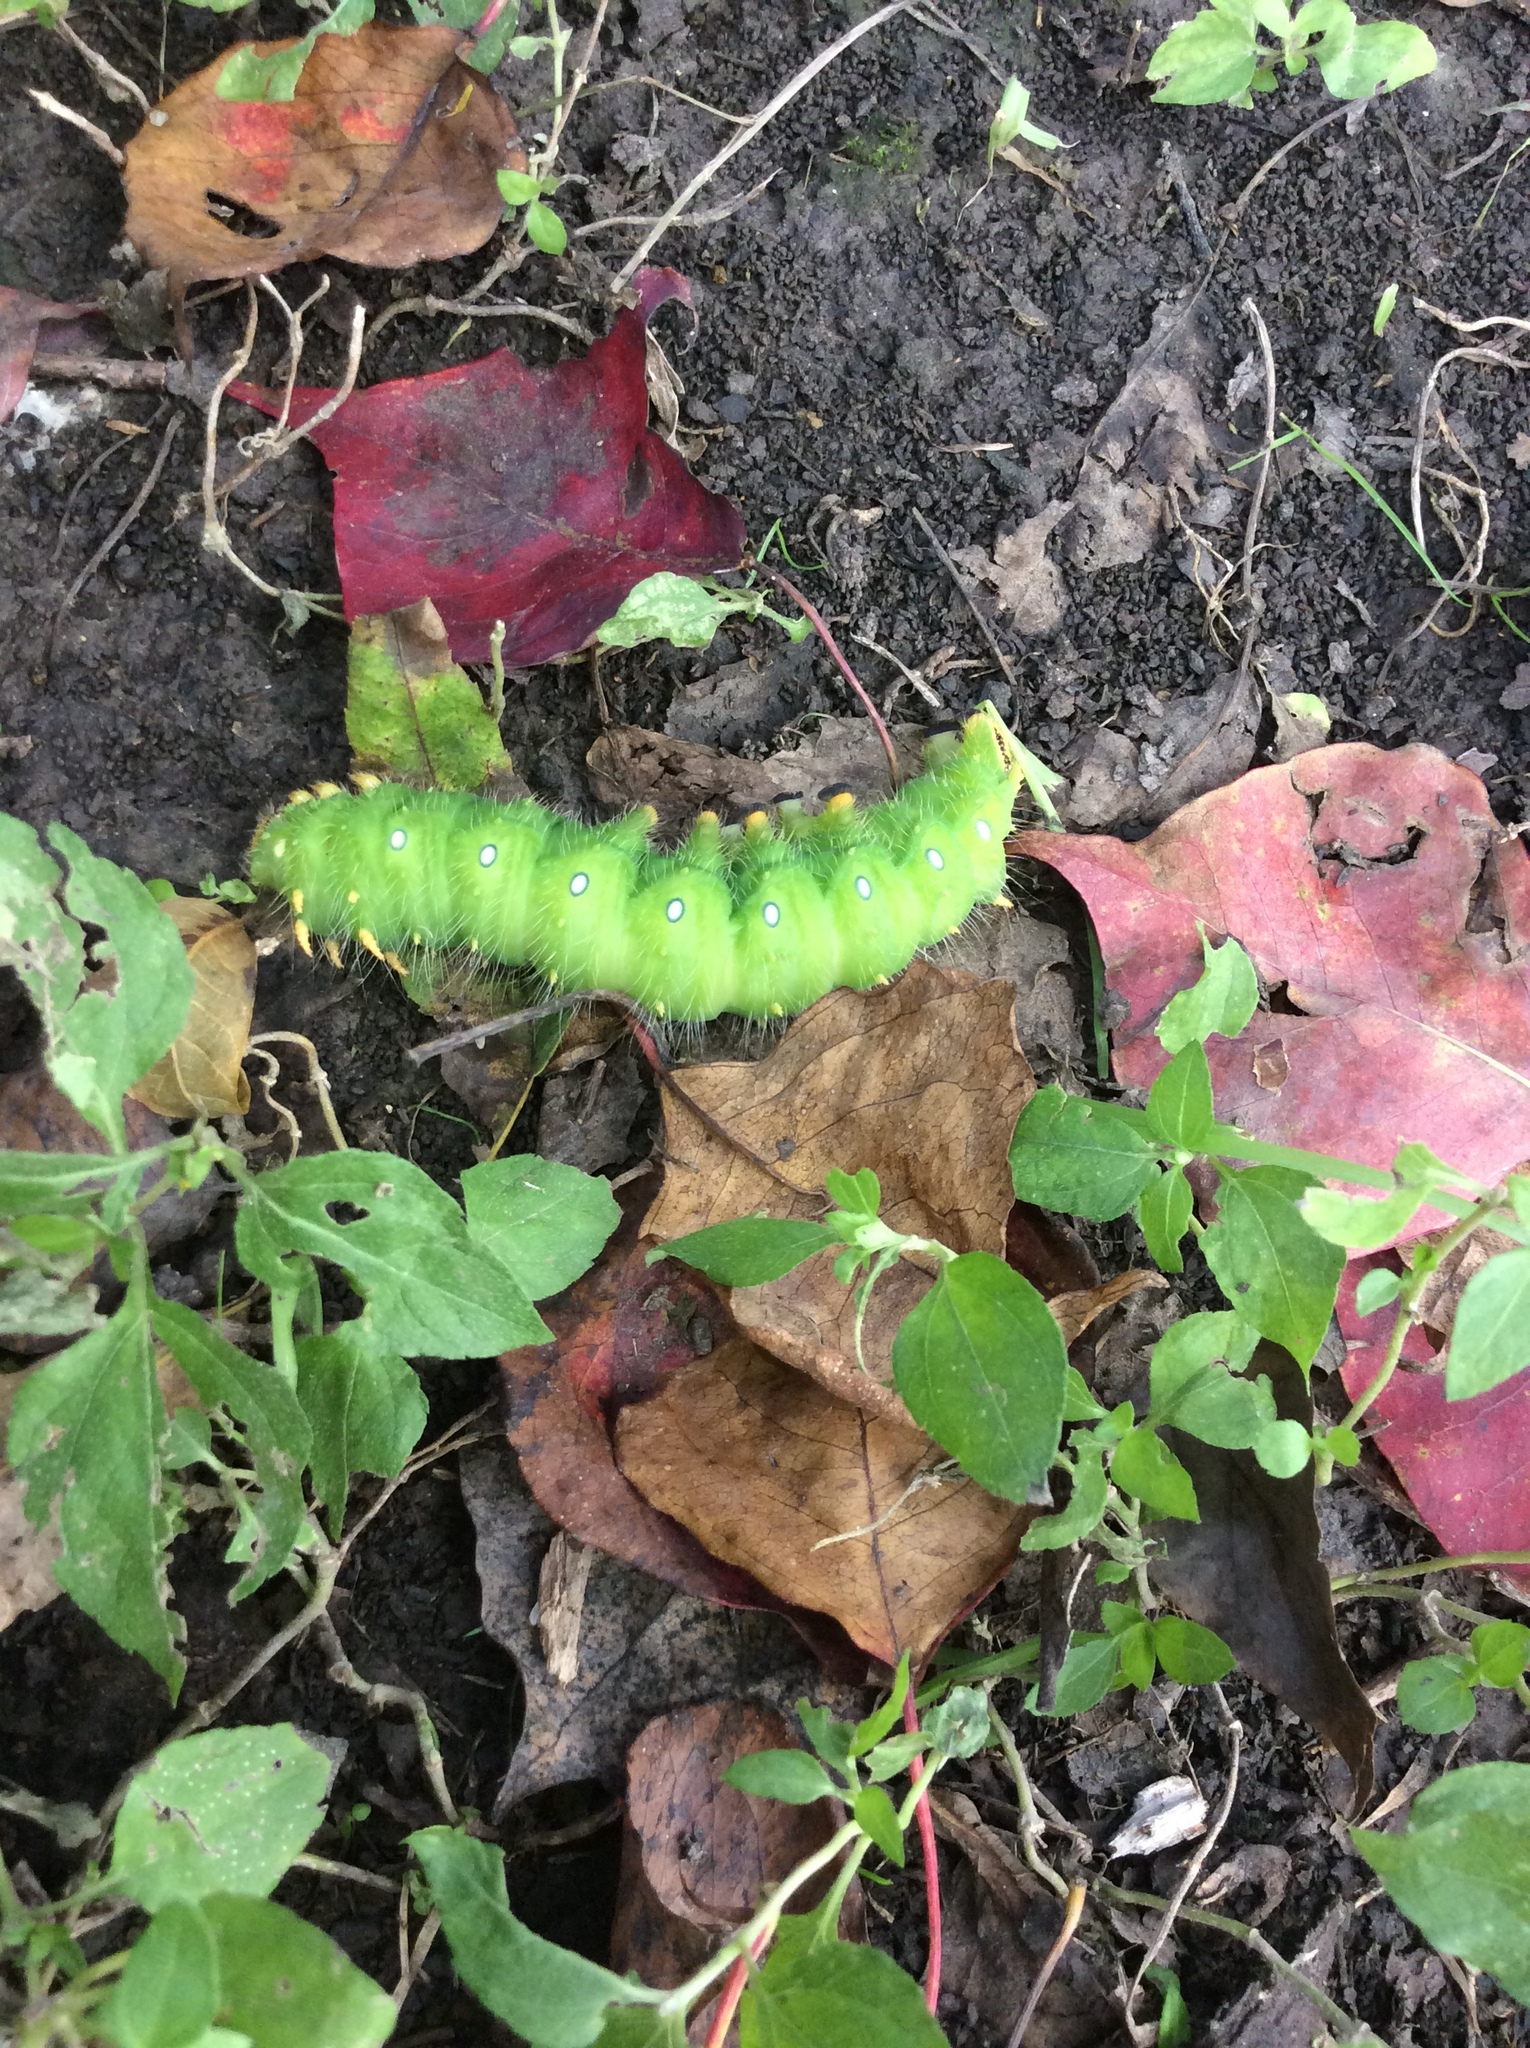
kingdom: Animalia
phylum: Arthropoda
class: Insecta
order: Lepidoptera
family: Saturniidae
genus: Eacles
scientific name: Eacles imperialis
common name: Imperial moth
